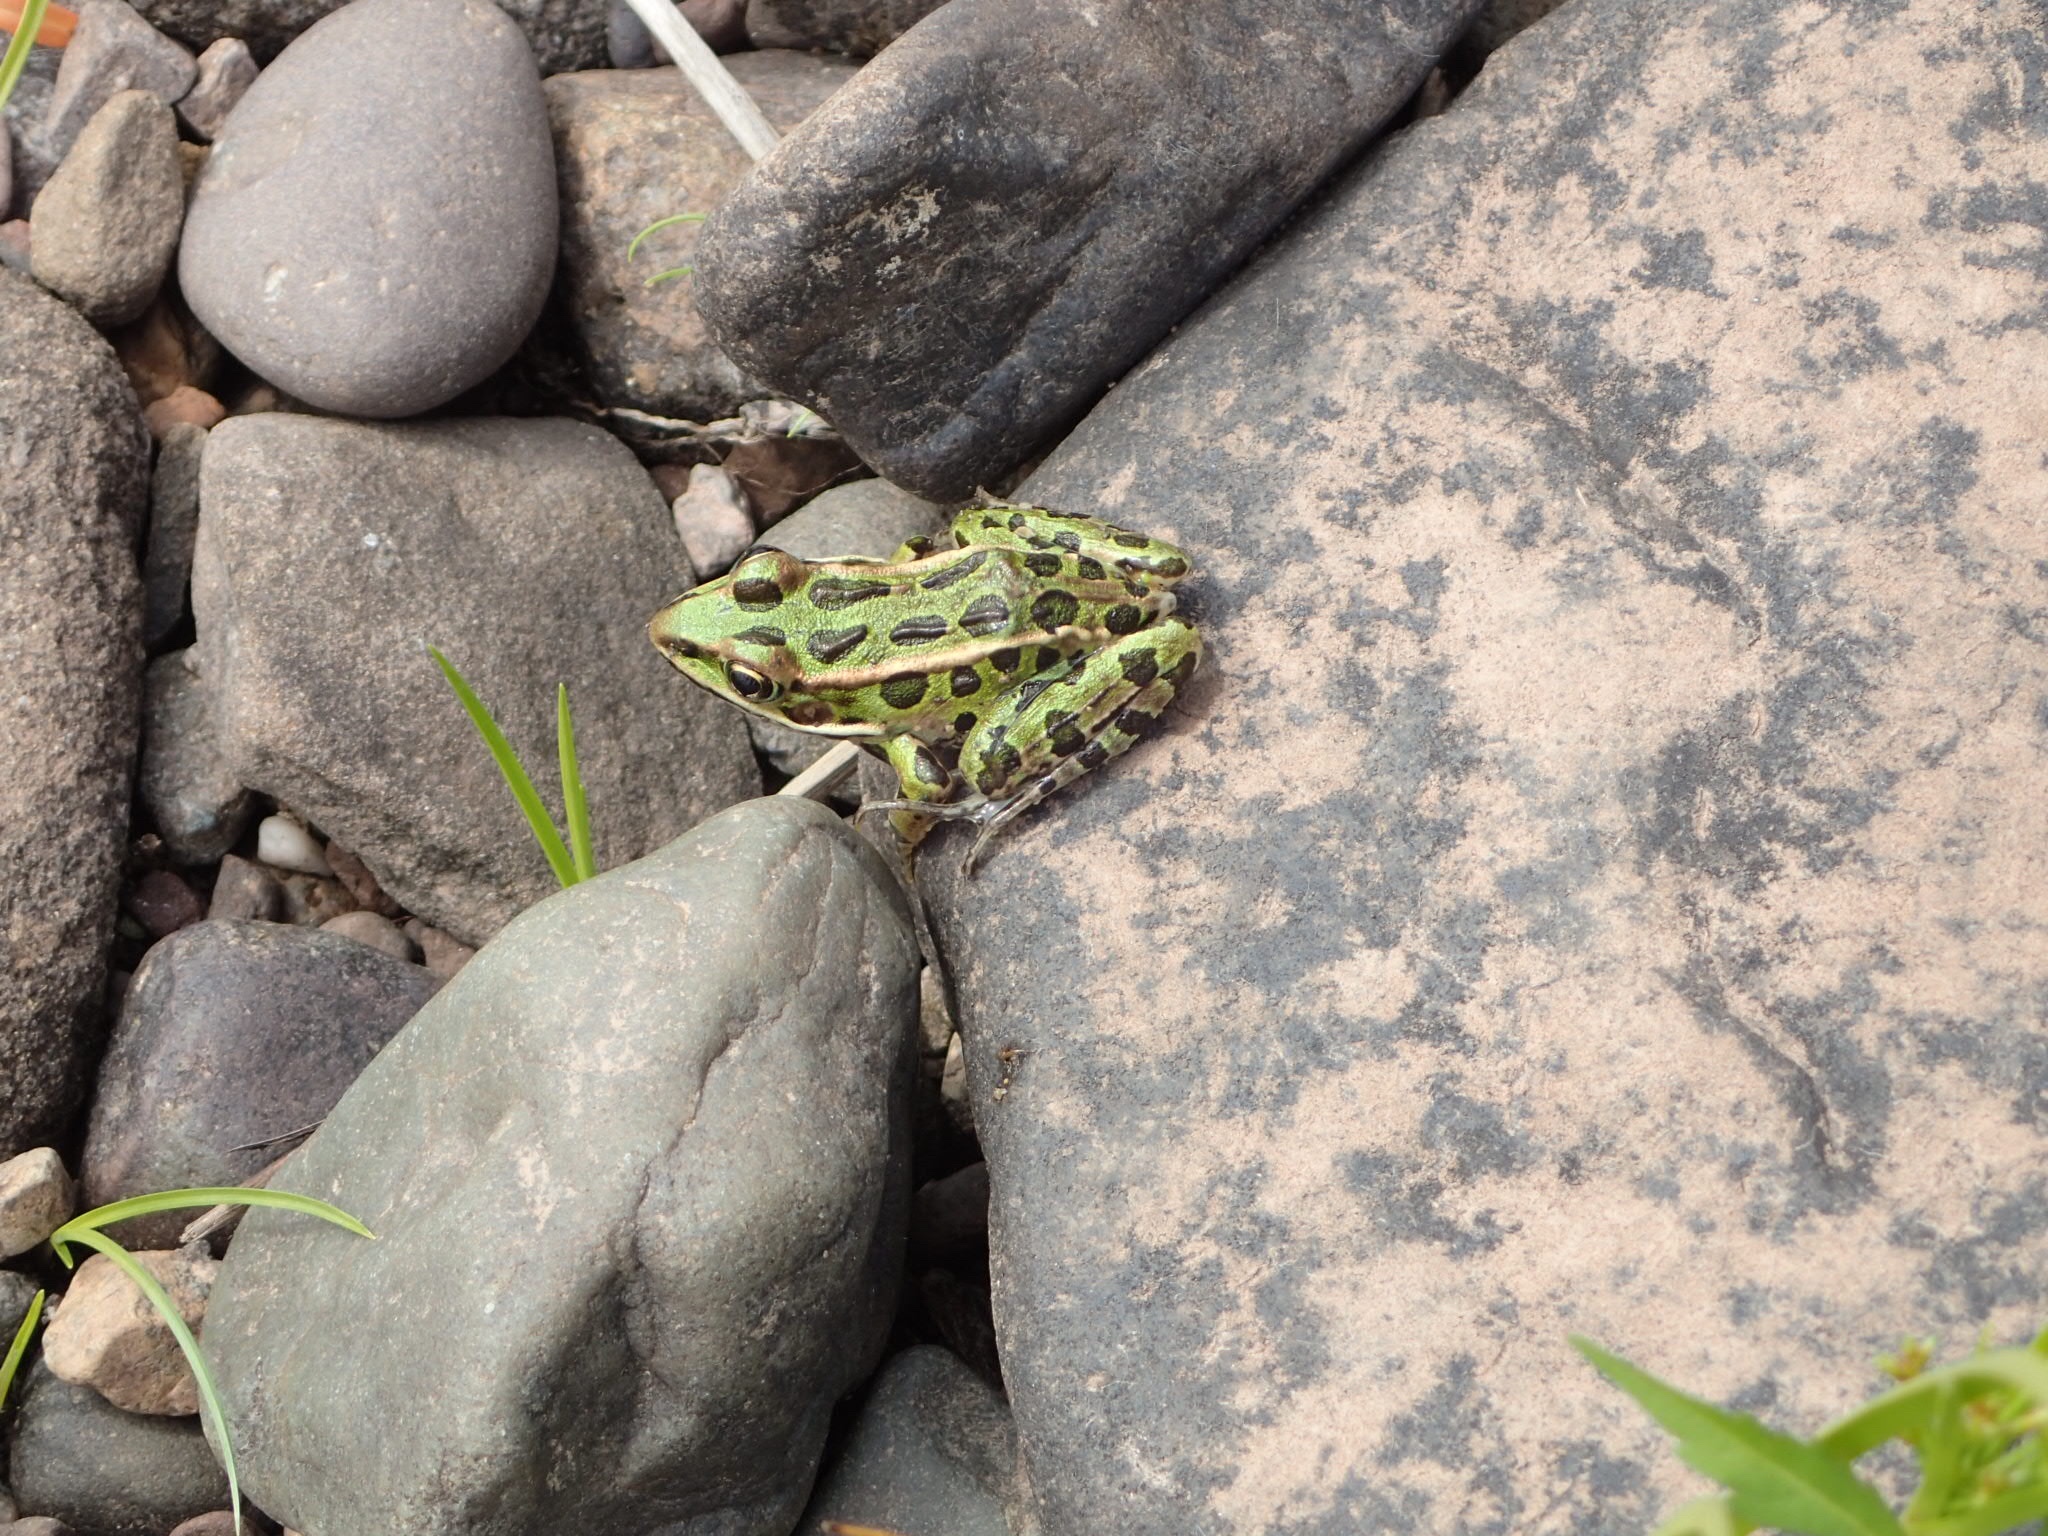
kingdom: Animalia
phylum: Chordata
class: Amphibia
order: Anura
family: Ranidae
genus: Lithobates
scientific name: Lithobates pipiens
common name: Northern leopard frog
